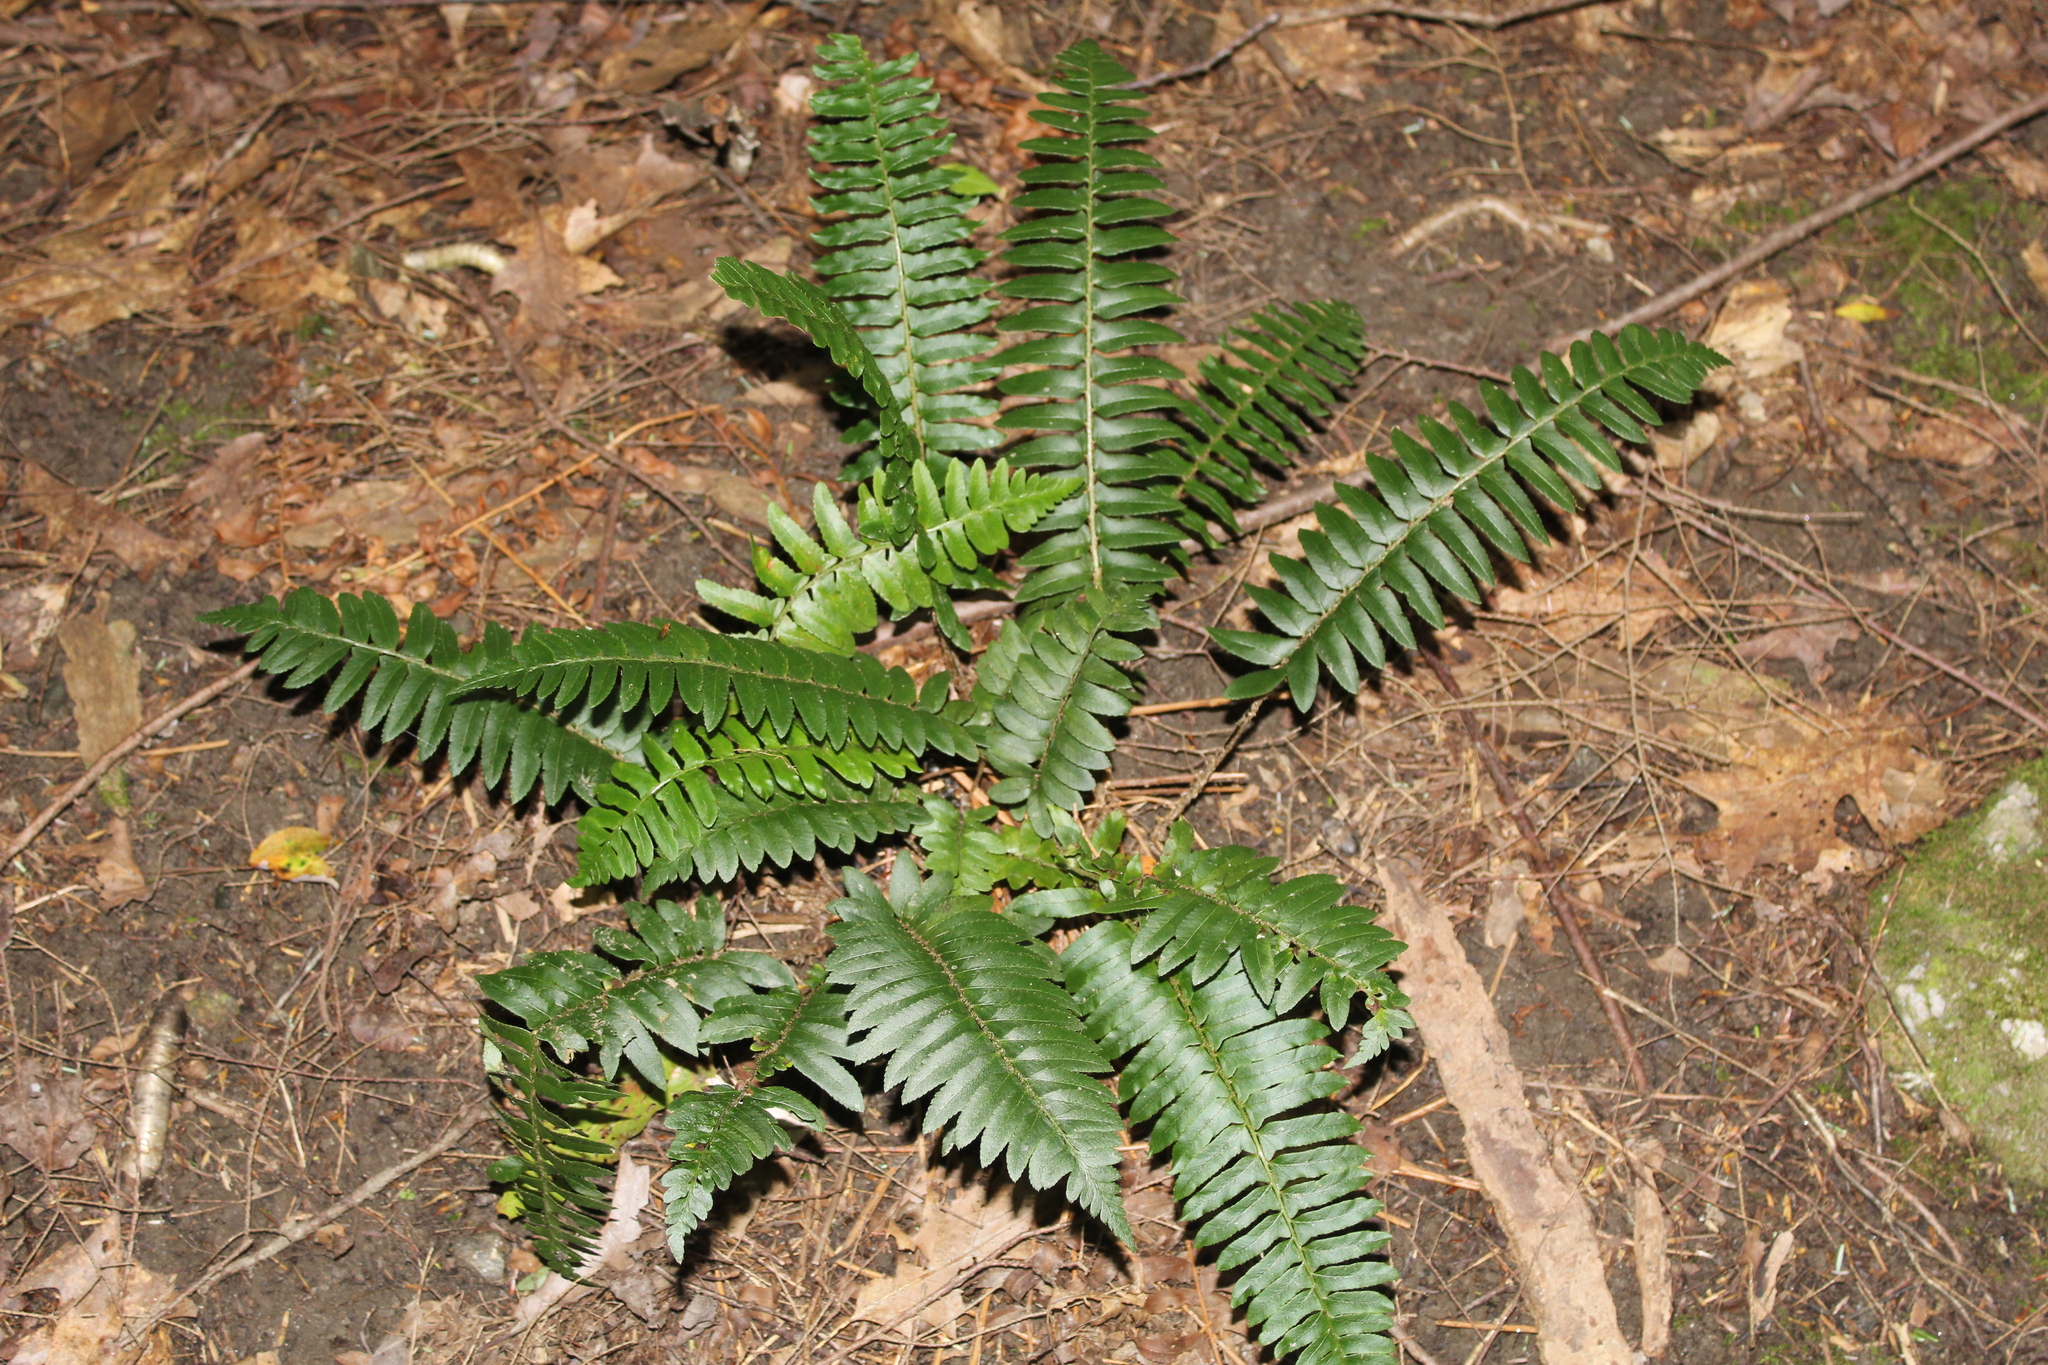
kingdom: Plantae
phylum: Tracheophyta
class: Polypodiopsida
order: Polypodiales
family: Dryopteridaceae
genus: Polystichum
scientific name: Polystichum acrostichoides
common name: Christmas fern
